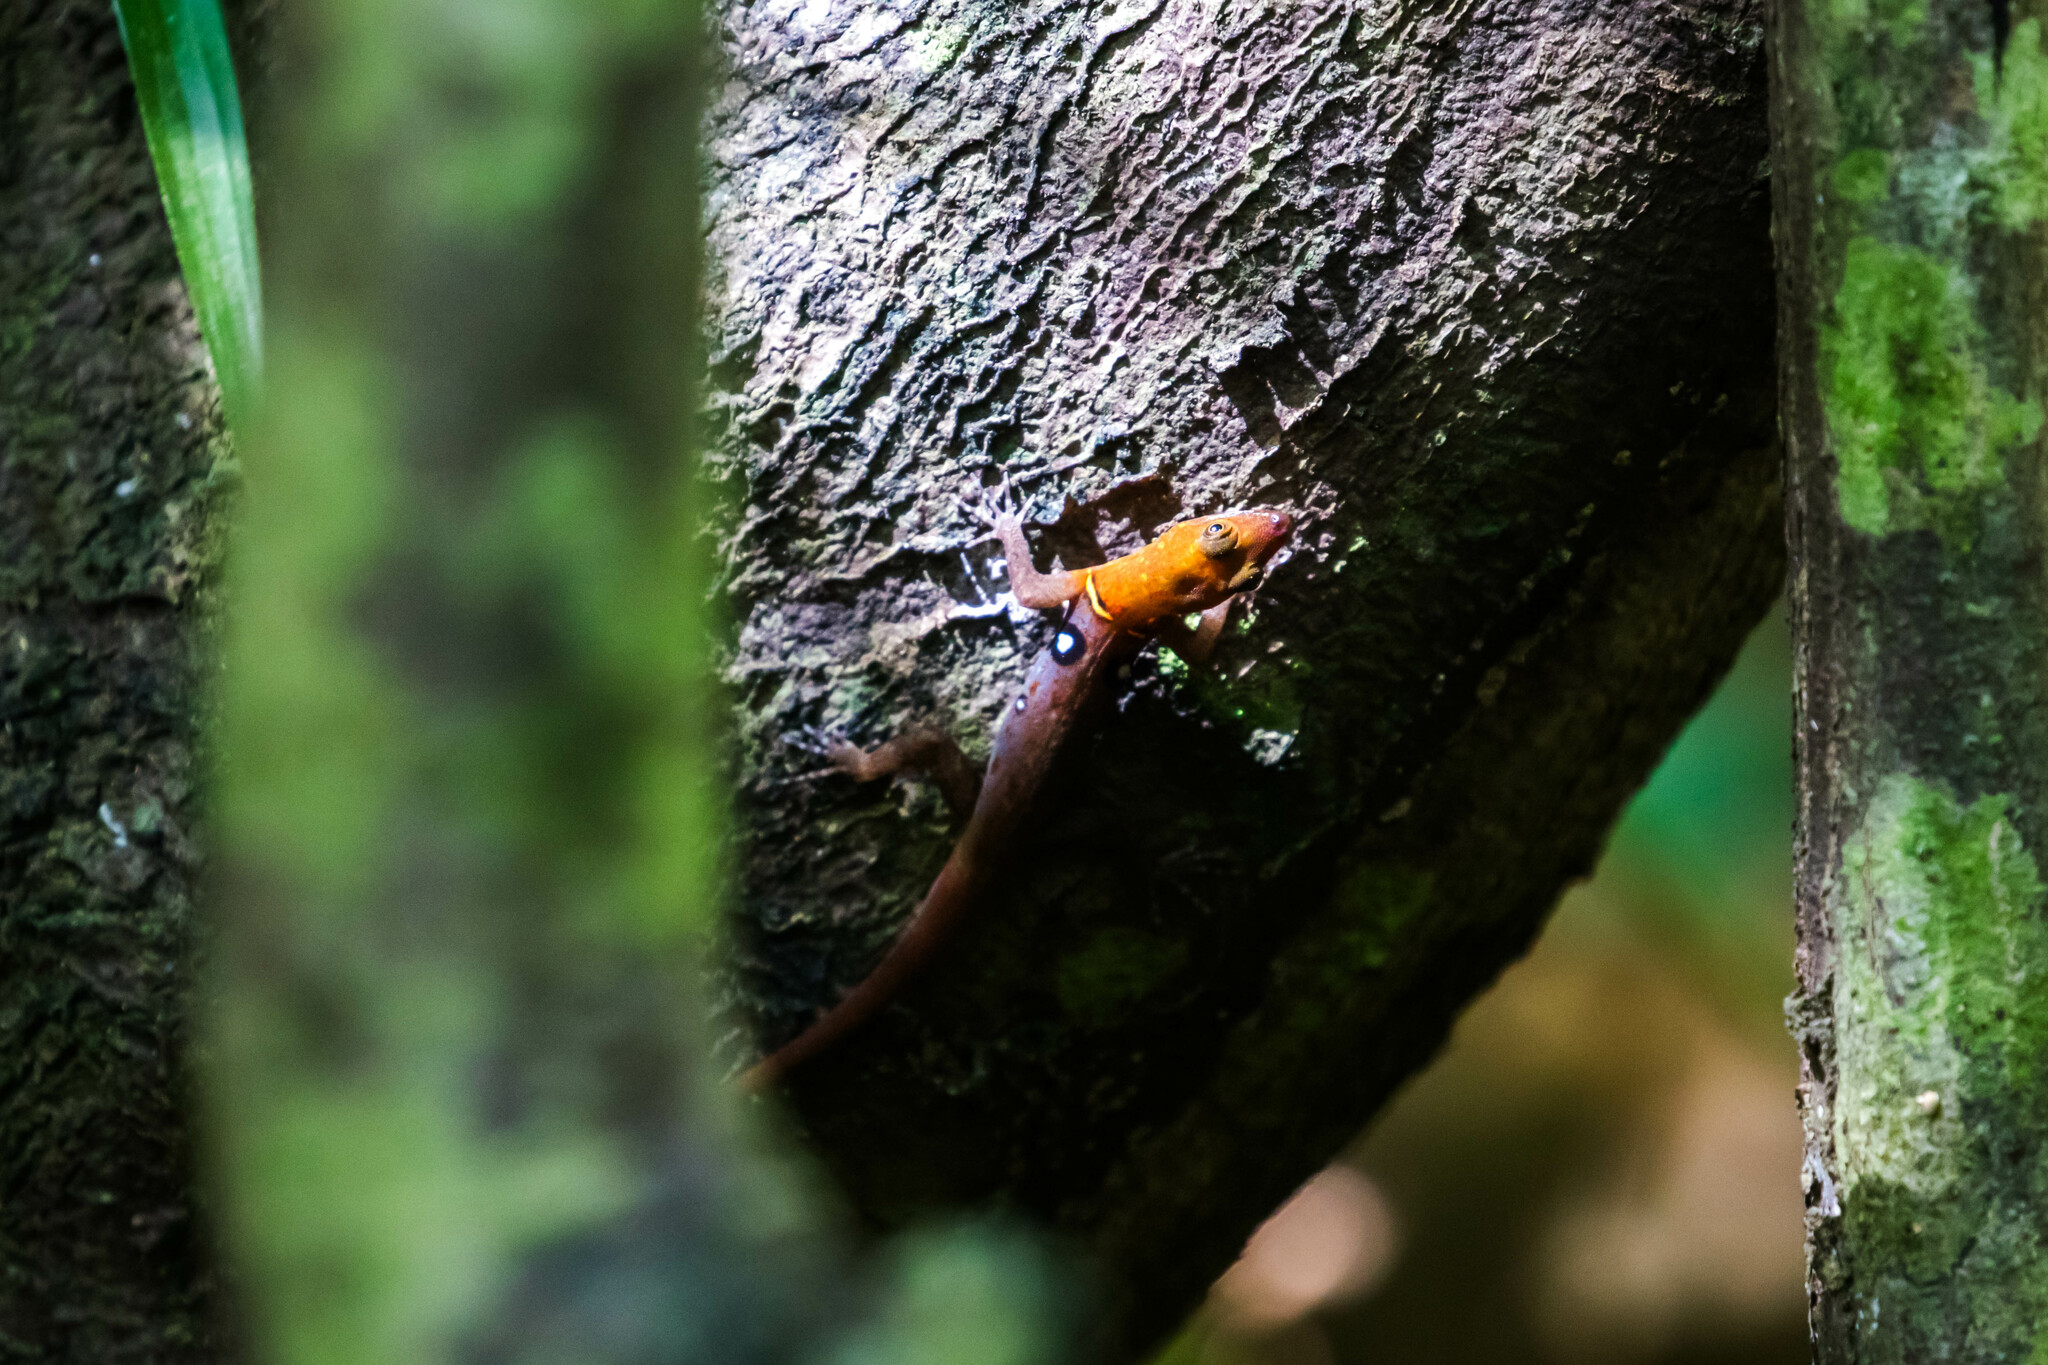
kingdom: Animalia
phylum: Chordata
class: Squamata
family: Sphaerodactylidae
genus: Gonatodes
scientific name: Gonatodes ocellatus
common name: Eyespot gecko
